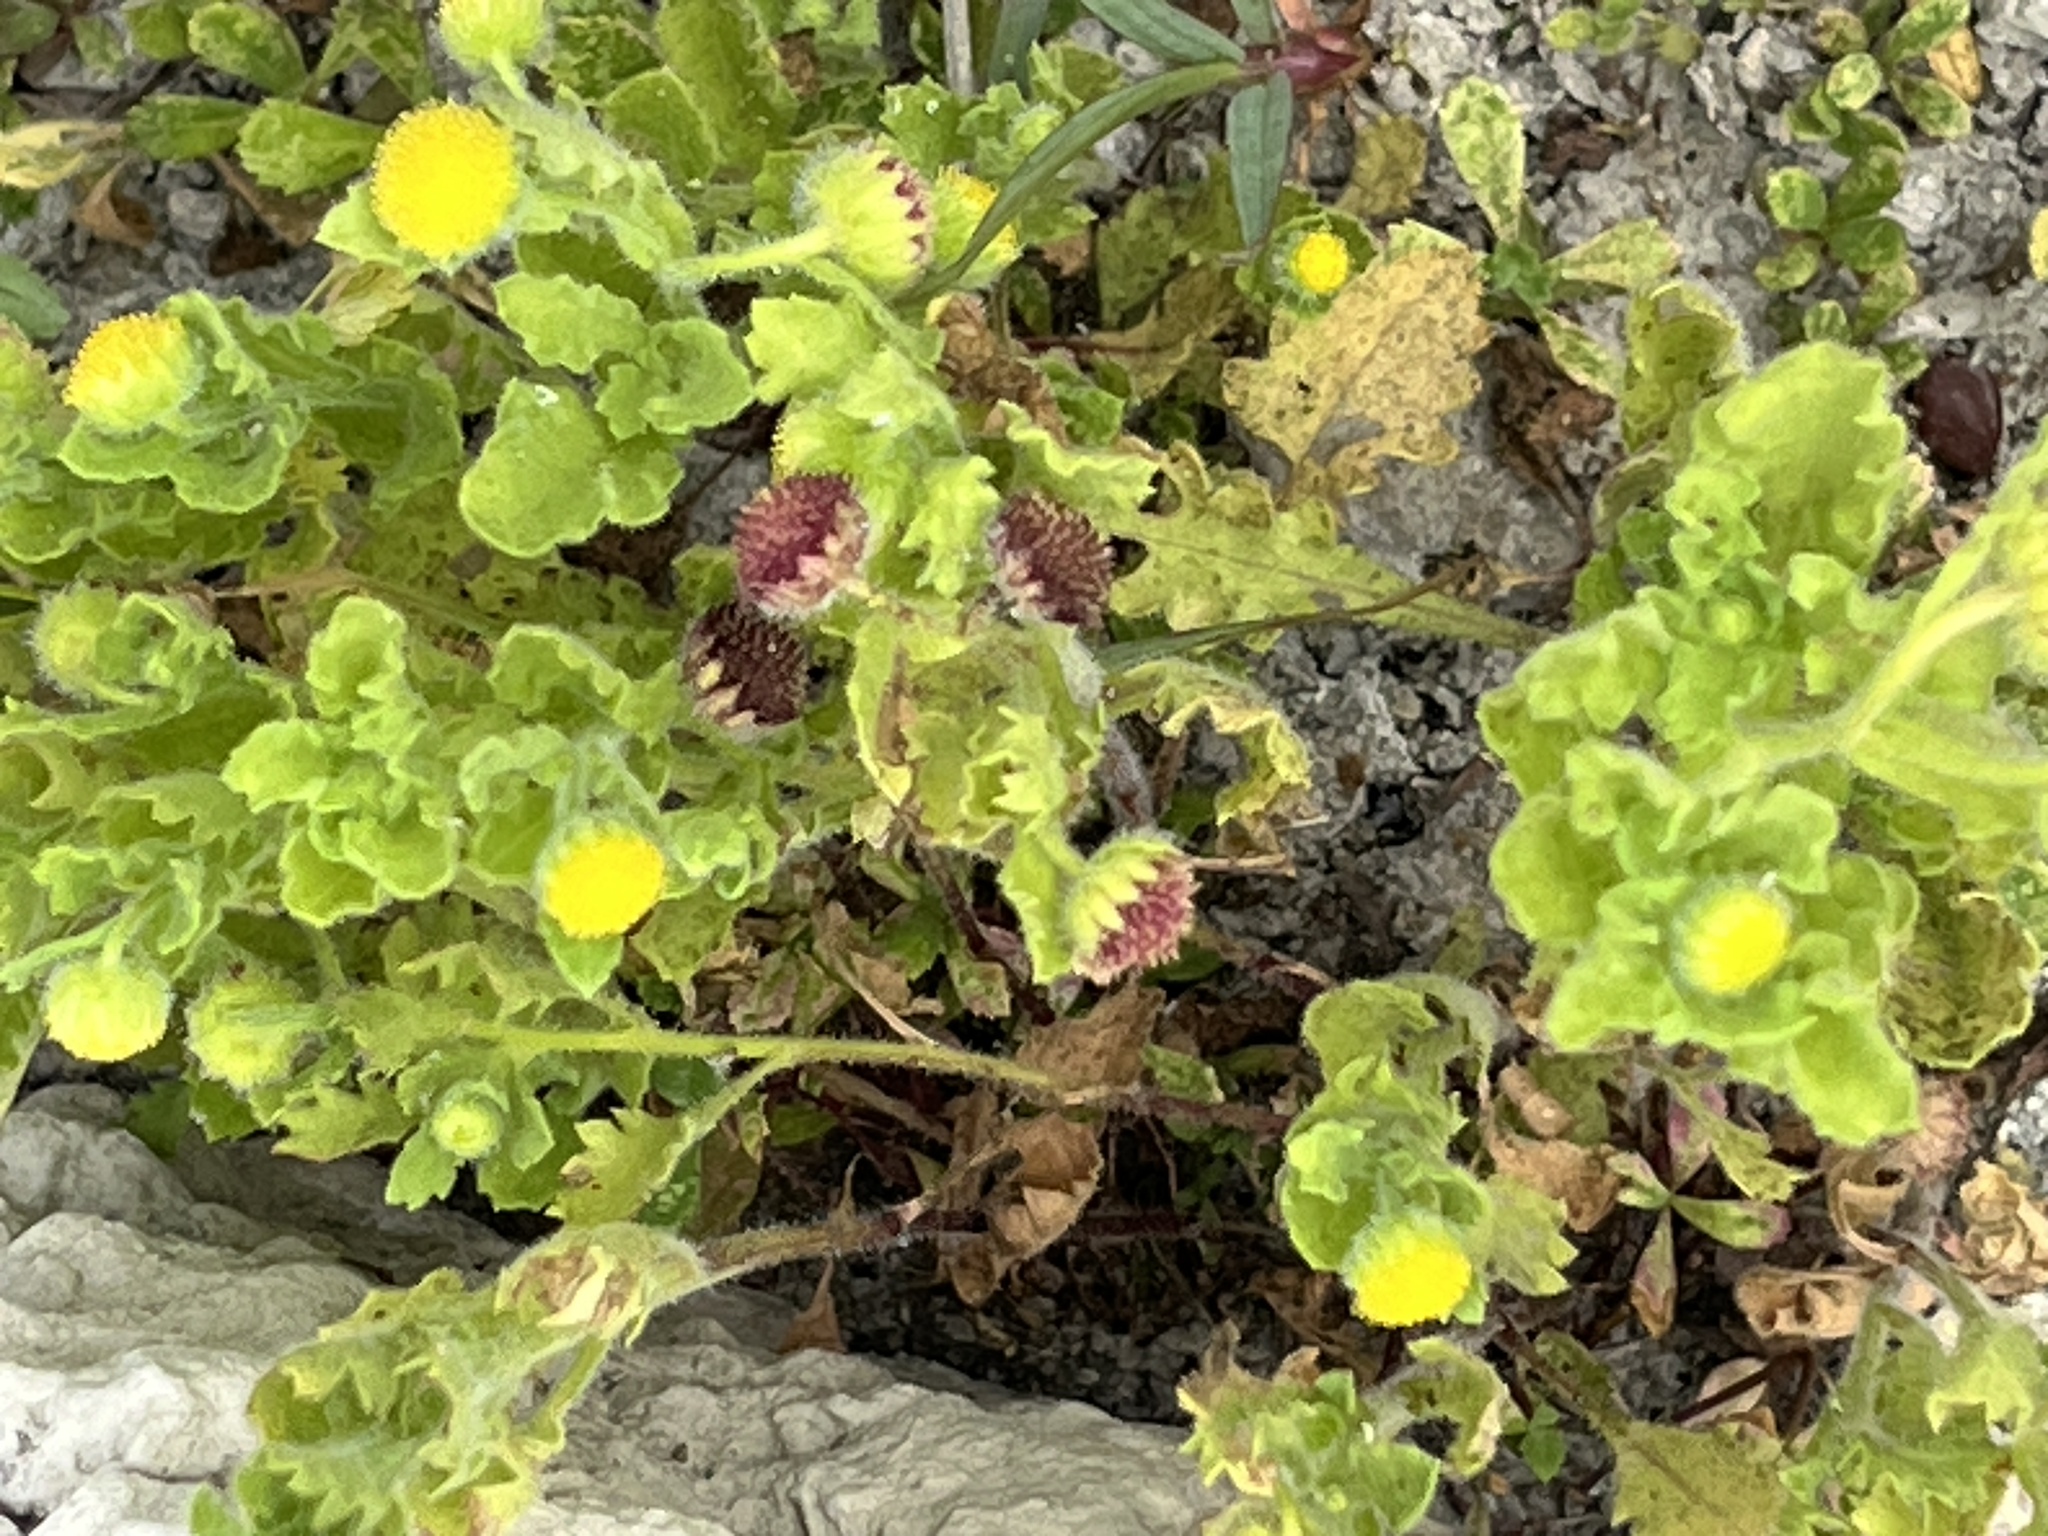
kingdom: Plantae
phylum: Tracheophyta
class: Magnoliopsida
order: Asterales
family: Asteraceae
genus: Grangea
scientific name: Grangea maderaspatana
